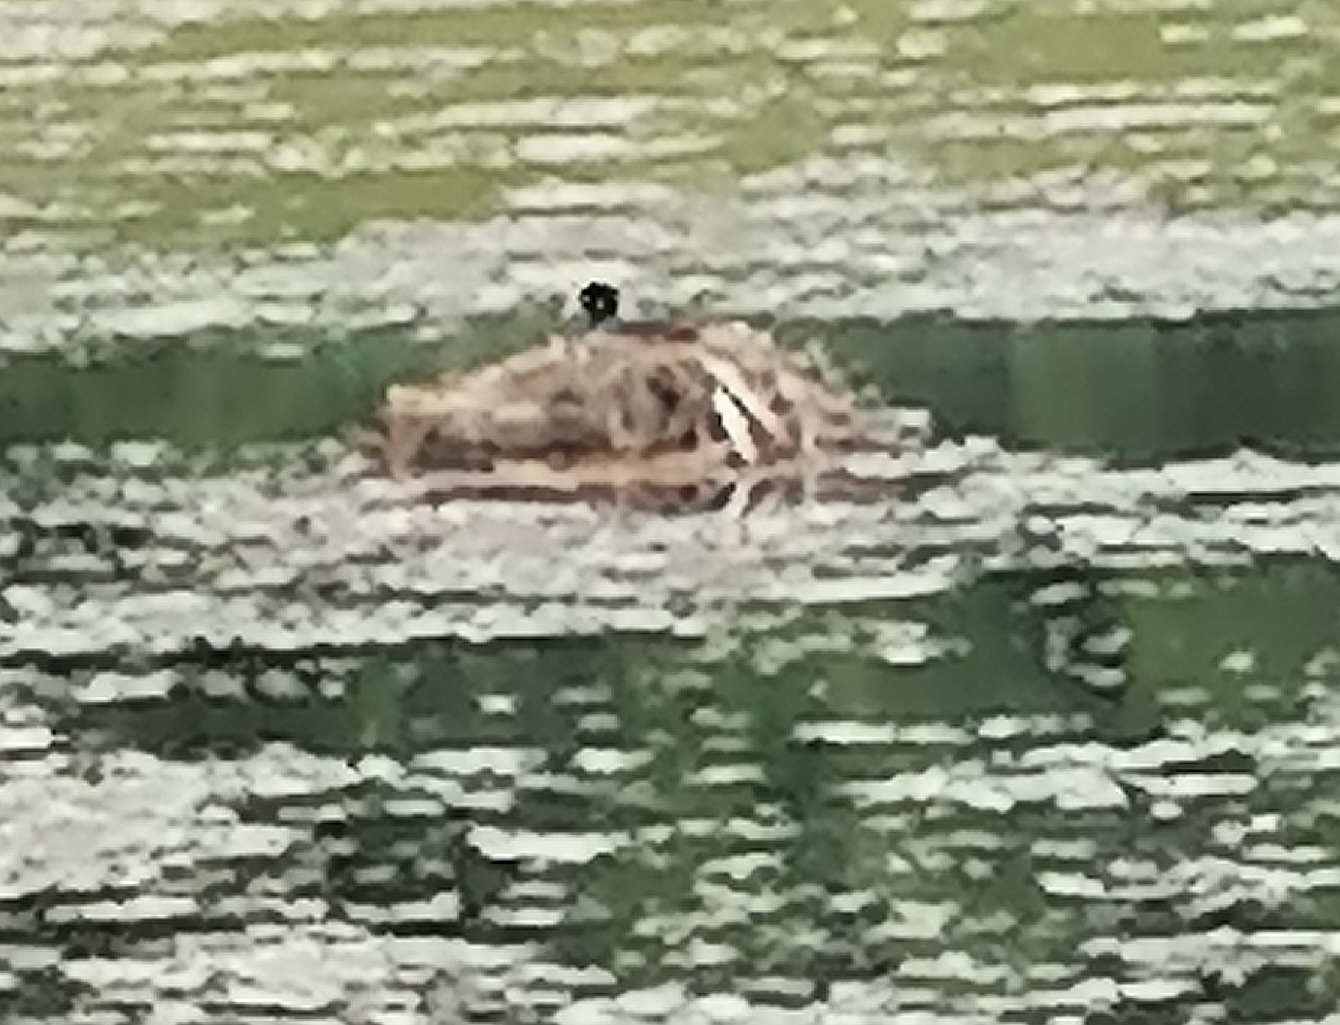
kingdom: Animalia
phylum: Chordata
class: Aves
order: Gruiformes
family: Rallidae
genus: Fulica
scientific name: Fulica atra
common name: Eurasian coot
